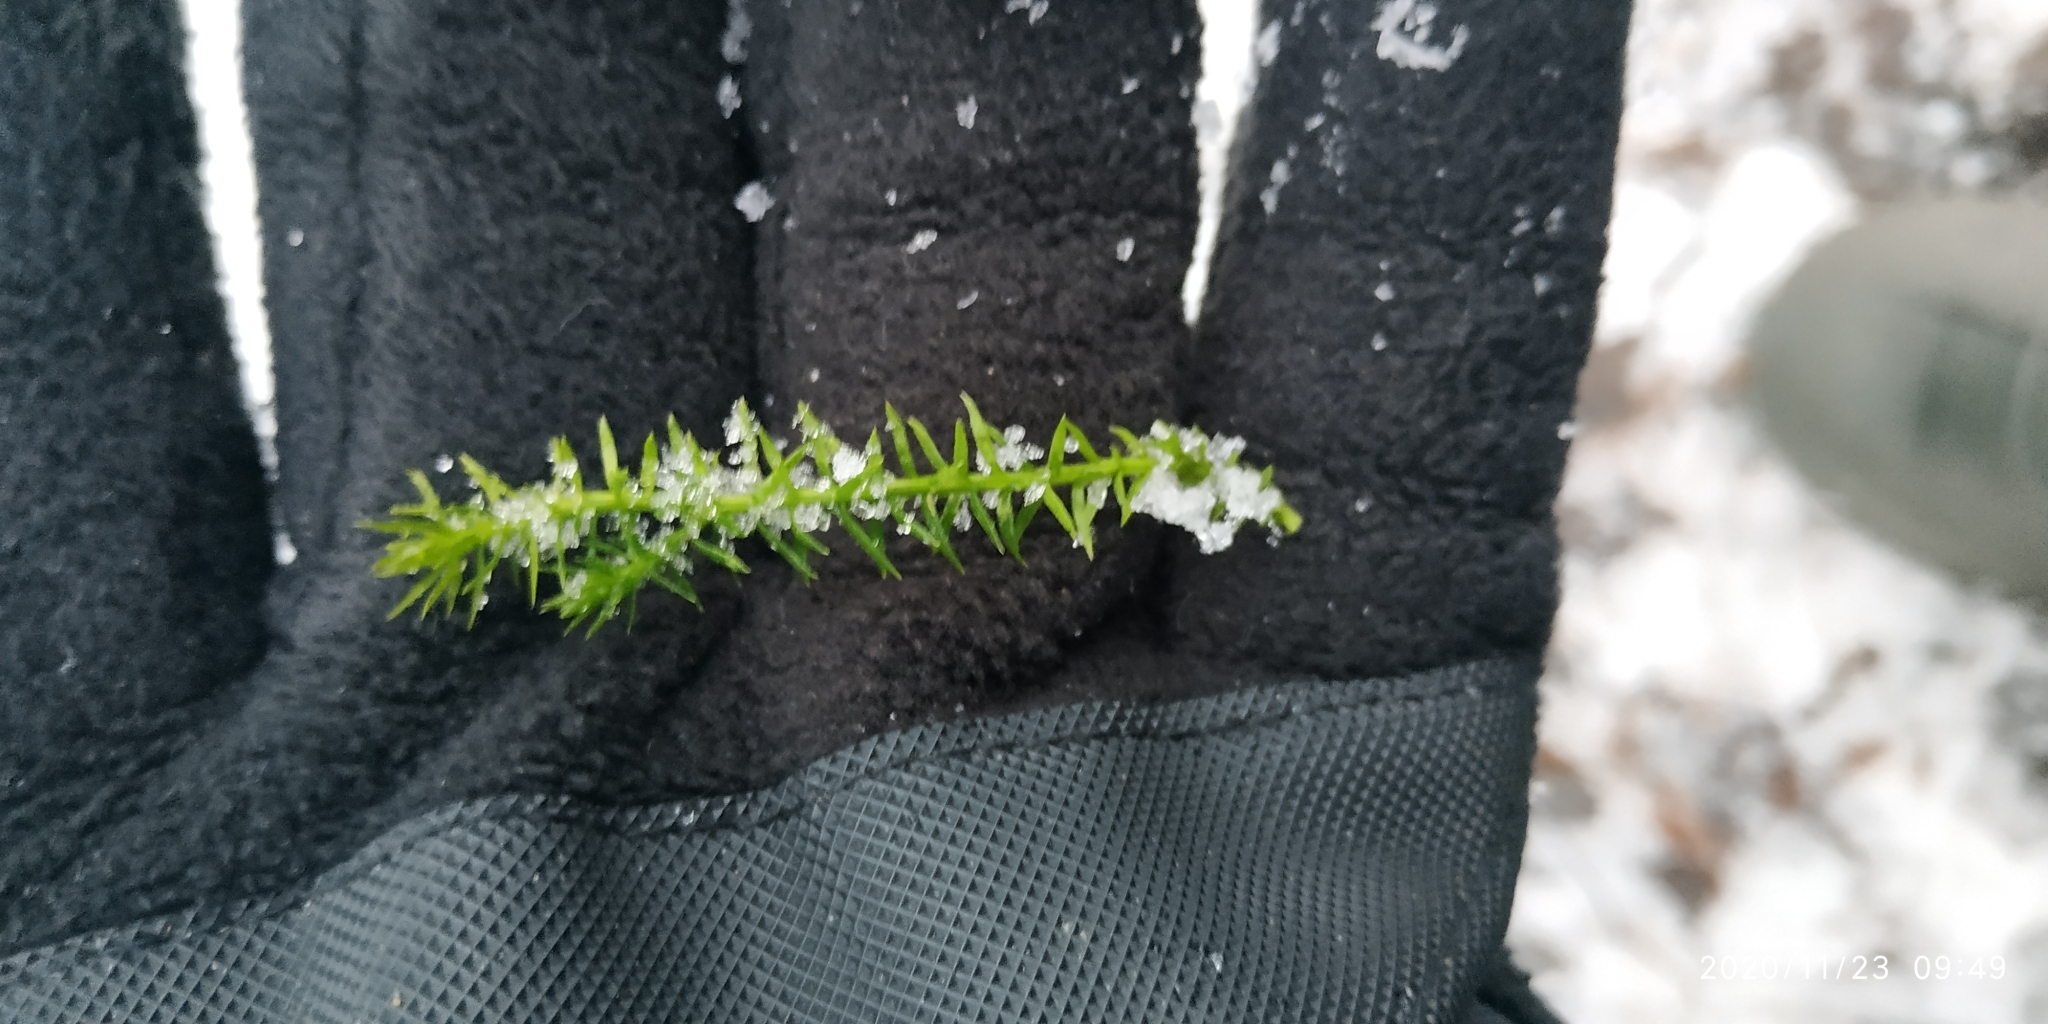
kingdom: Plantae
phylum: Tracheophyta
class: Lycopodiopsida
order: Lycopodiales
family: Lycopodiaceae
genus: Spinulum
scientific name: Spinulum annotinum
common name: Interrupted club-moss
